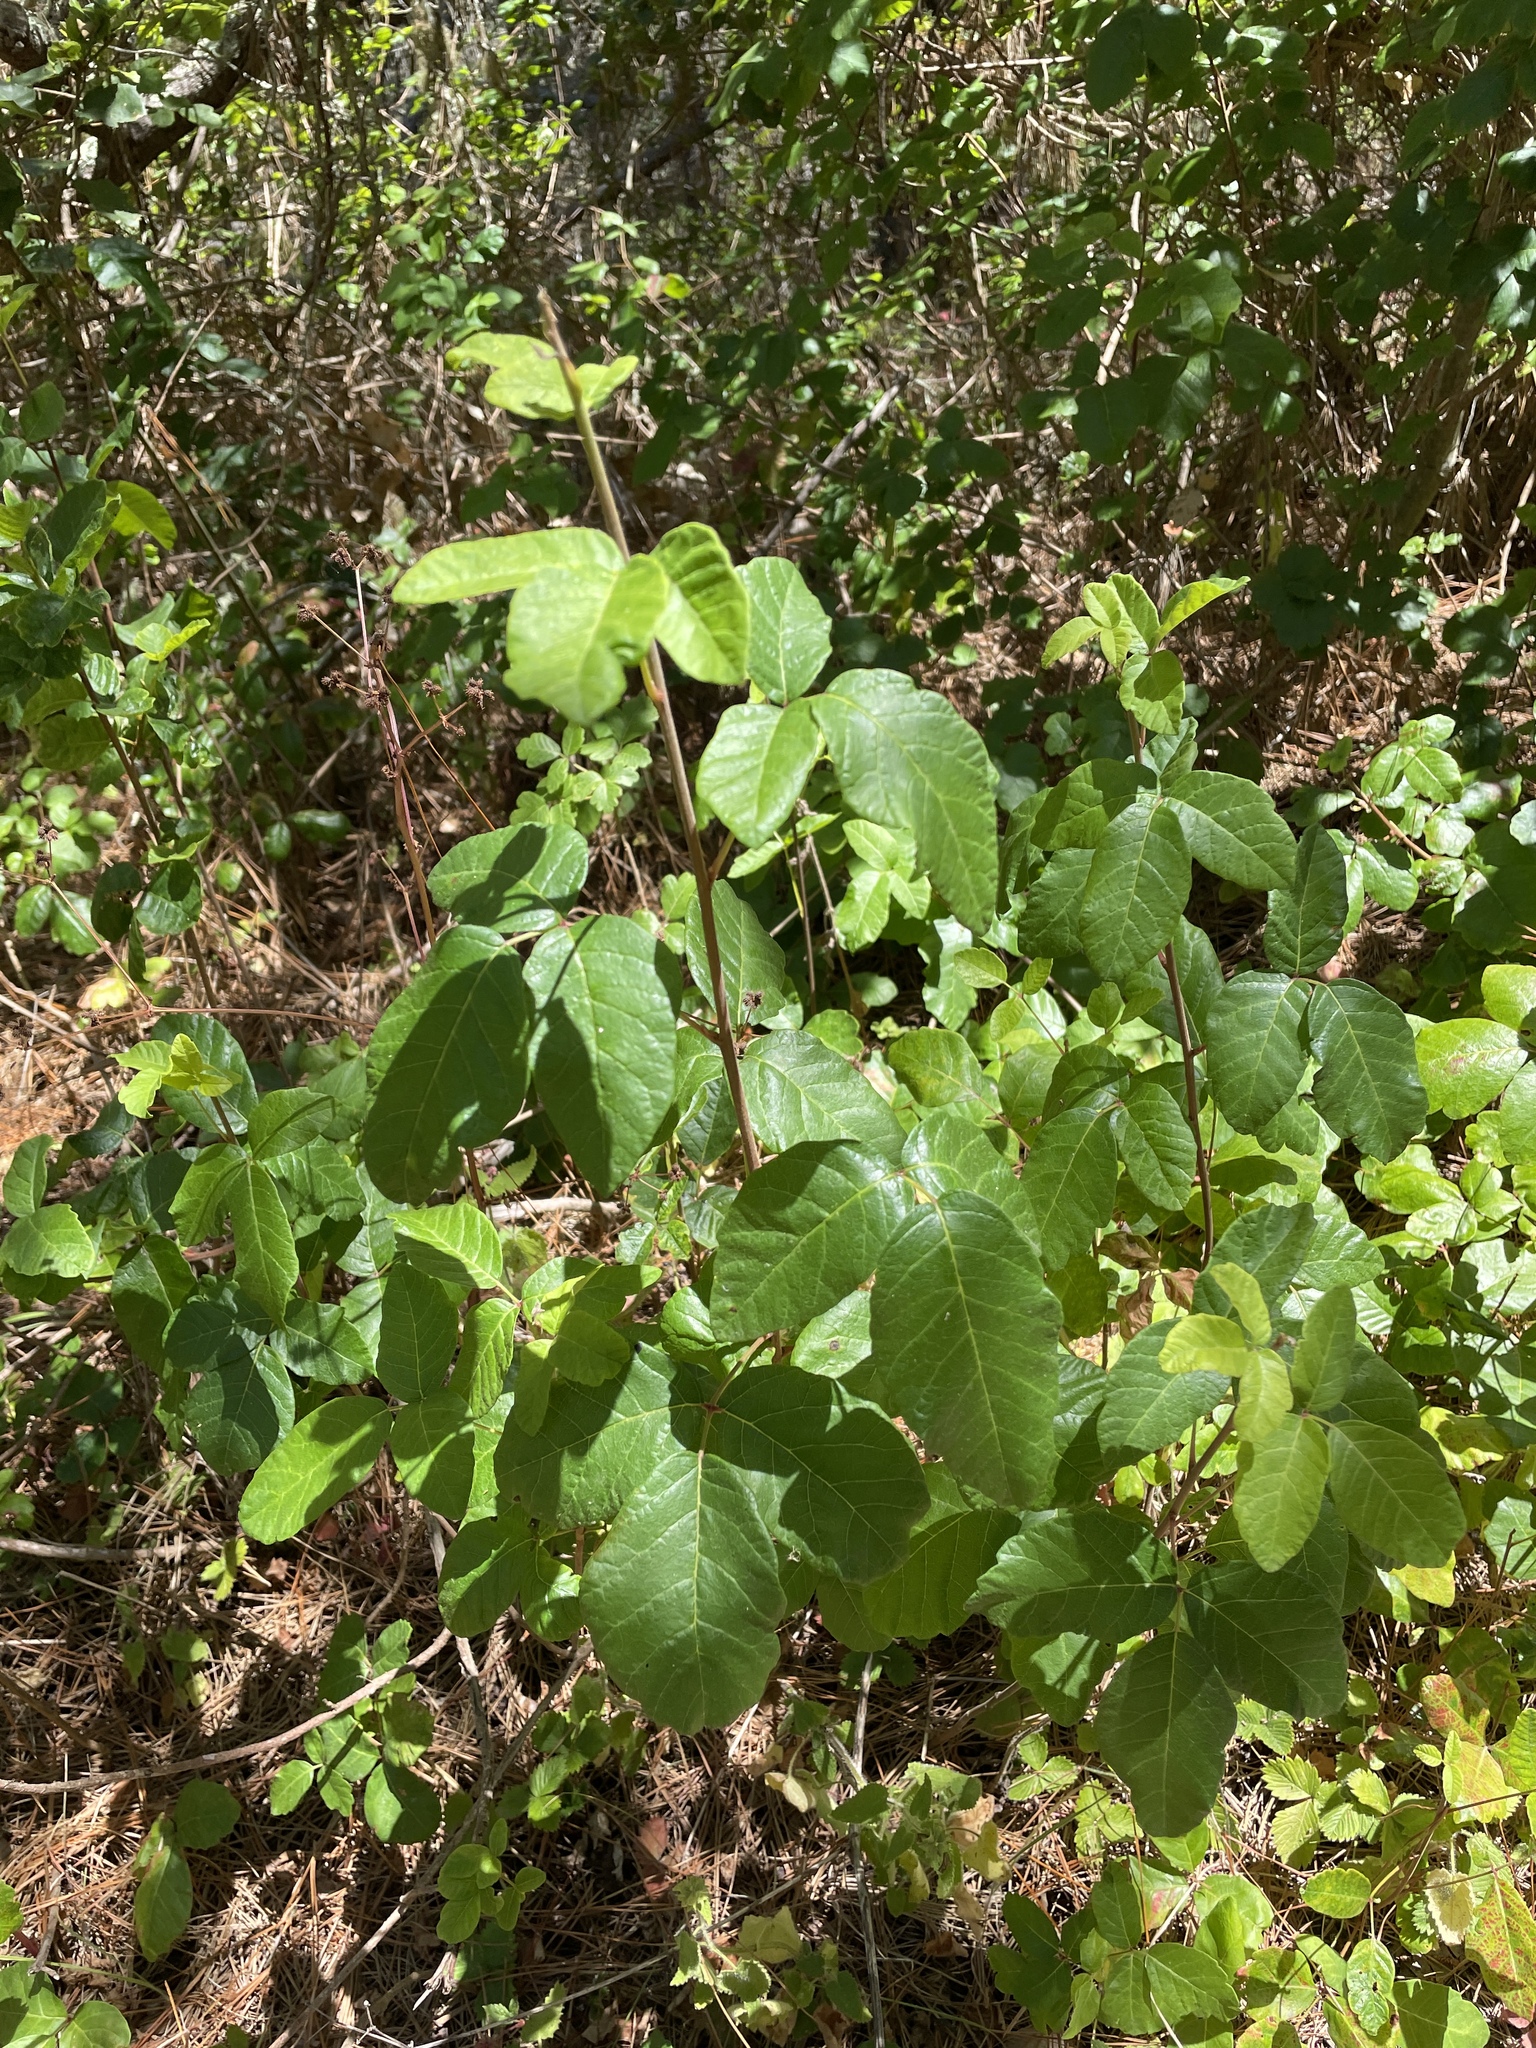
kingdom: Plantae
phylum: Tracheophyta
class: Magnoliopsida
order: Sapindales
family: Anacardiaceae
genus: Toxicodendron
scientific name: Toxicodendron diversilobum
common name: Pacific poison-oak
